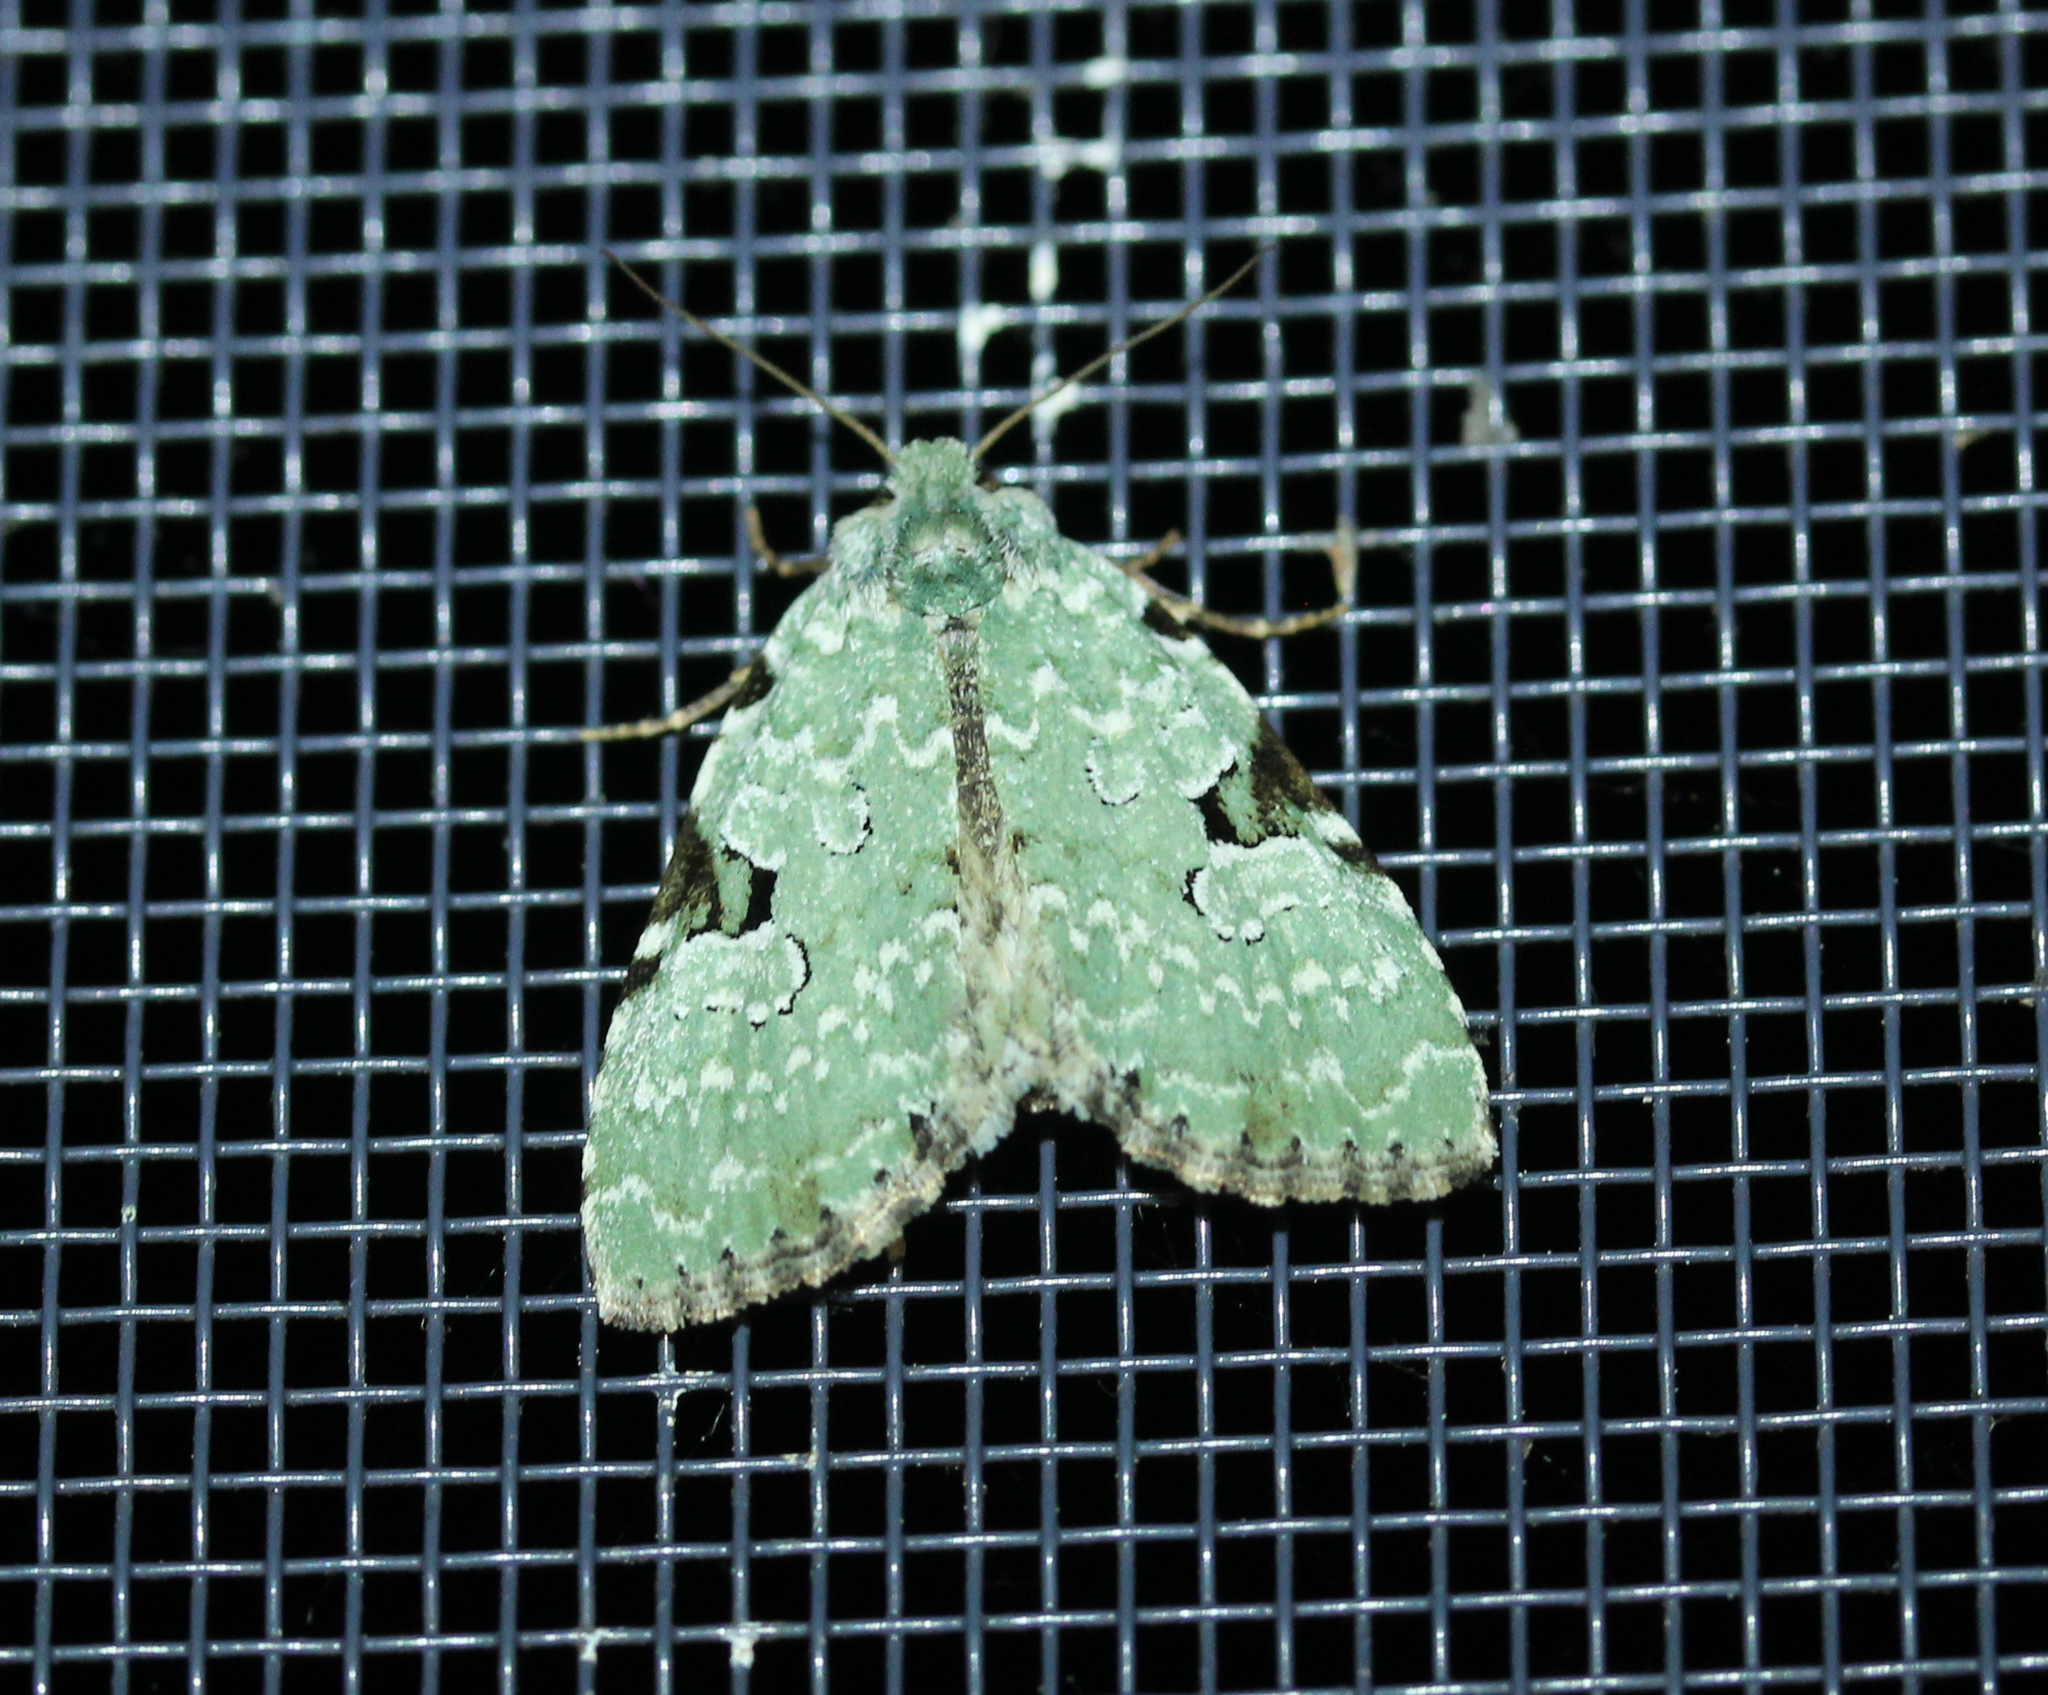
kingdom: Animalia
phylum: Arthropoda
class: Insecta
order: Lepidoptera
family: Noctuidae
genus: Leuconycta
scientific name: Leuconycta diphteroides
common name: Green leuconycta moth
